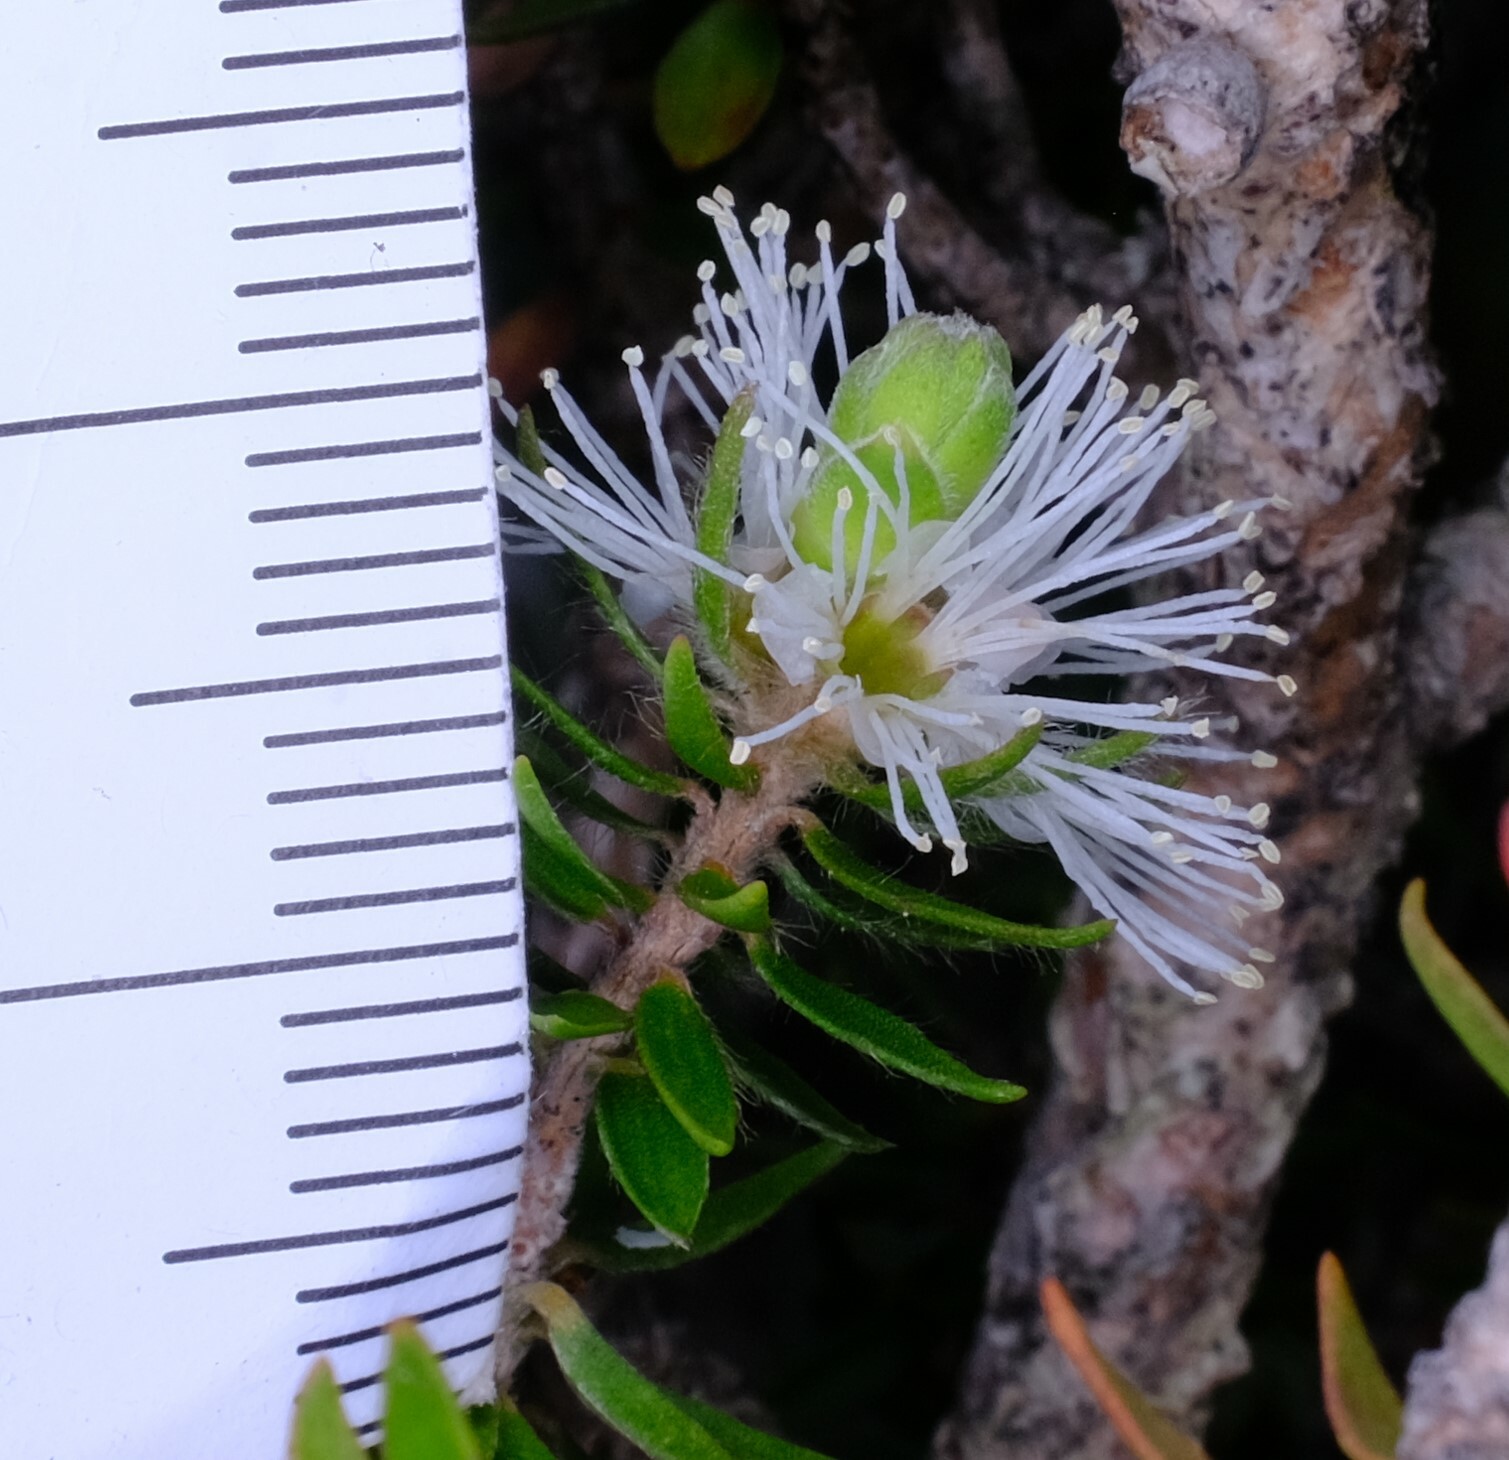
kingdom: Plantae
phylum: Tracheophyta
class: Magnoliopsida
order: Myrtales
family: Myrtaceae
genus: Melaleuca
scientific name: Melaleuca squamea
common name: Swamp melaleuca
